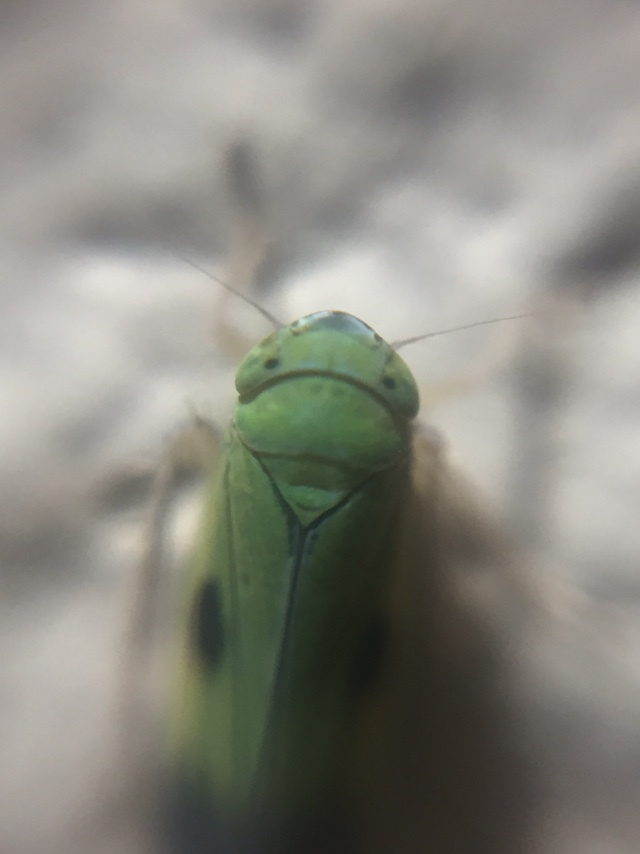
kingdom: Animalia
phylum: Arthropoda
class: Insecta
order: Hemiptera
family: Cicadellidae
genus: Nephotettix
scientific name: Nephotettix parvus
